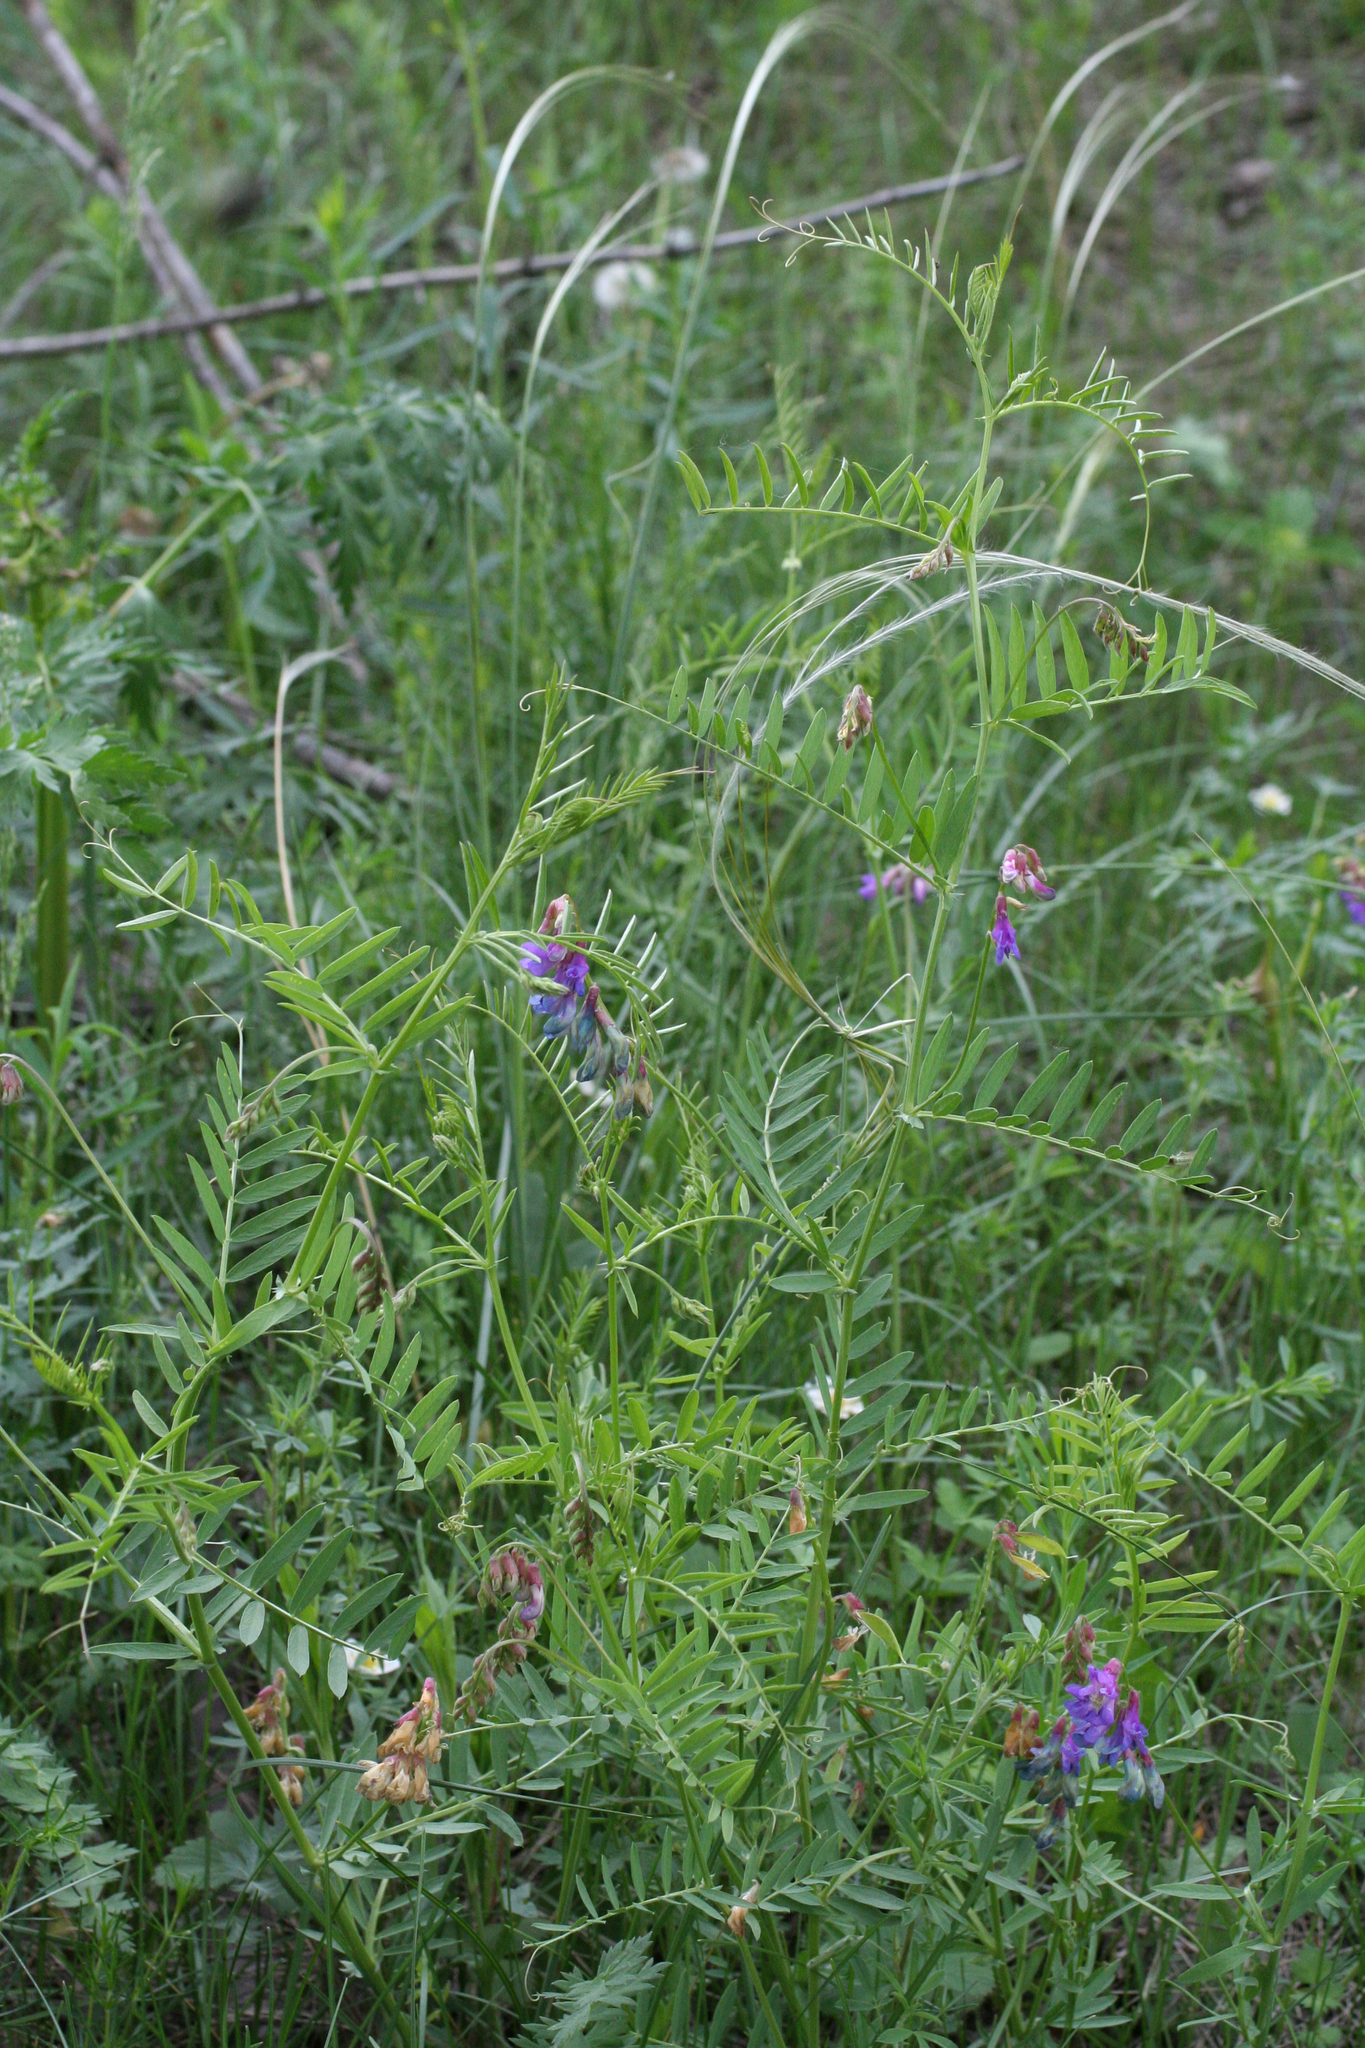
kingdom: Plantae
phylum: Tracheophyta
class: Magnoliopsida
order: Fabales
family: Fabaceae
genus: Vicia
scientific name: Vicia multicaulis
